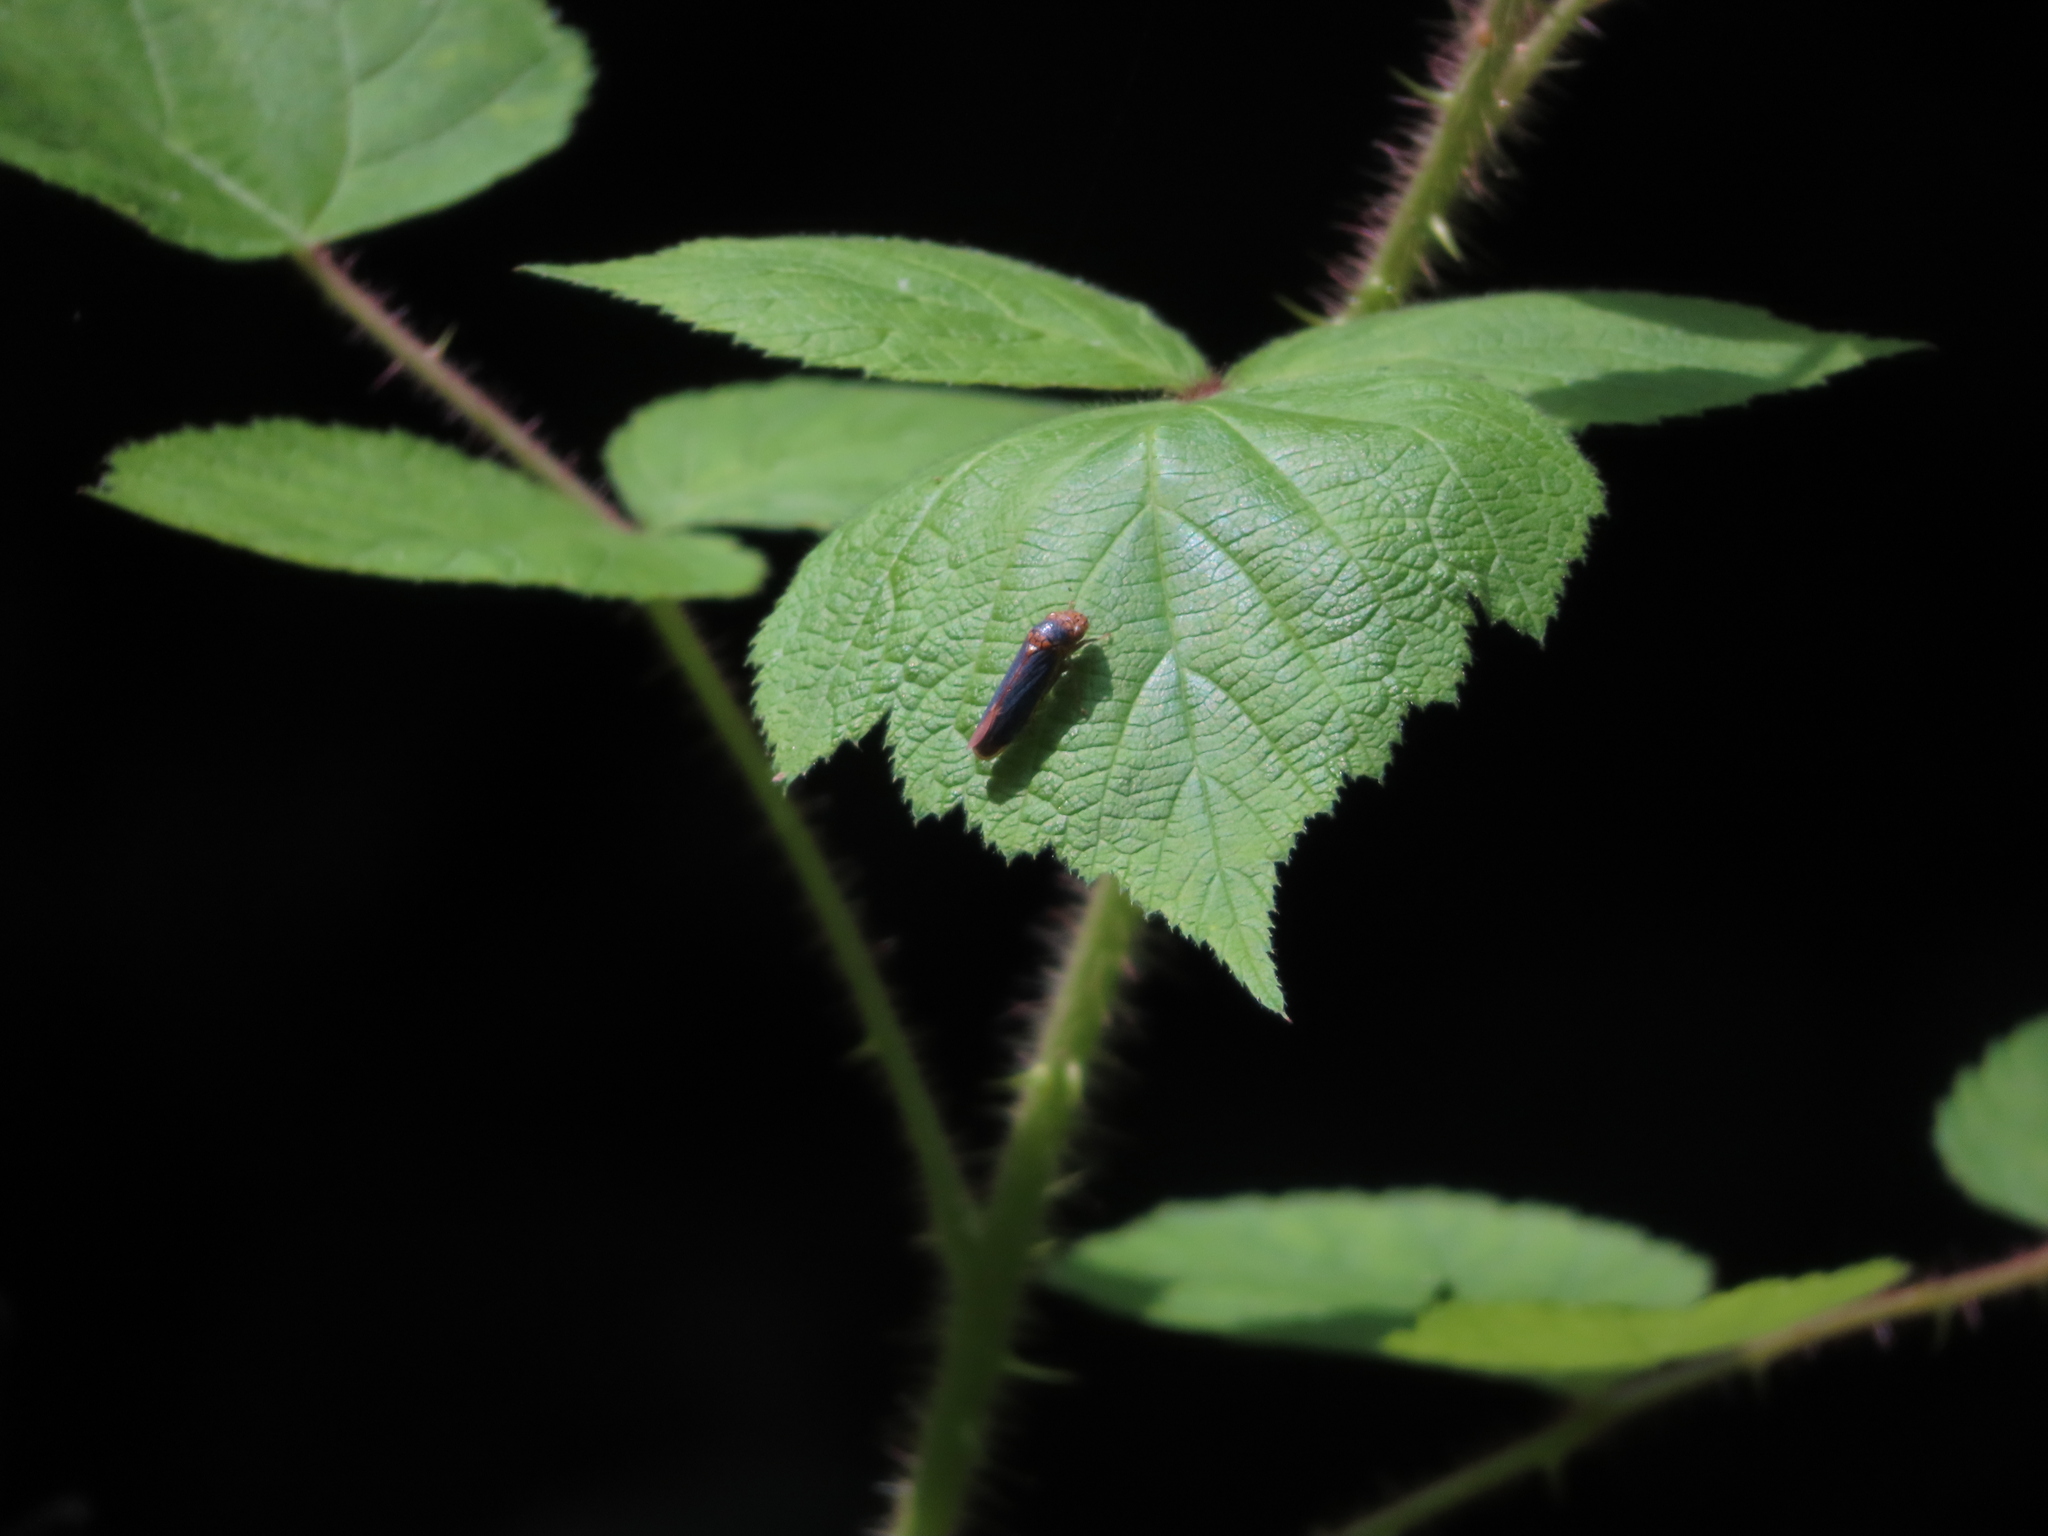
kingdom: Animalia
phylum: Arthropoda
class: Insecta
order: Hemiptera
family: Cicadellidae
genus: Oncometopia
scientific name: Oncometopia orbona
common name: Broad-headed sharpshooter
